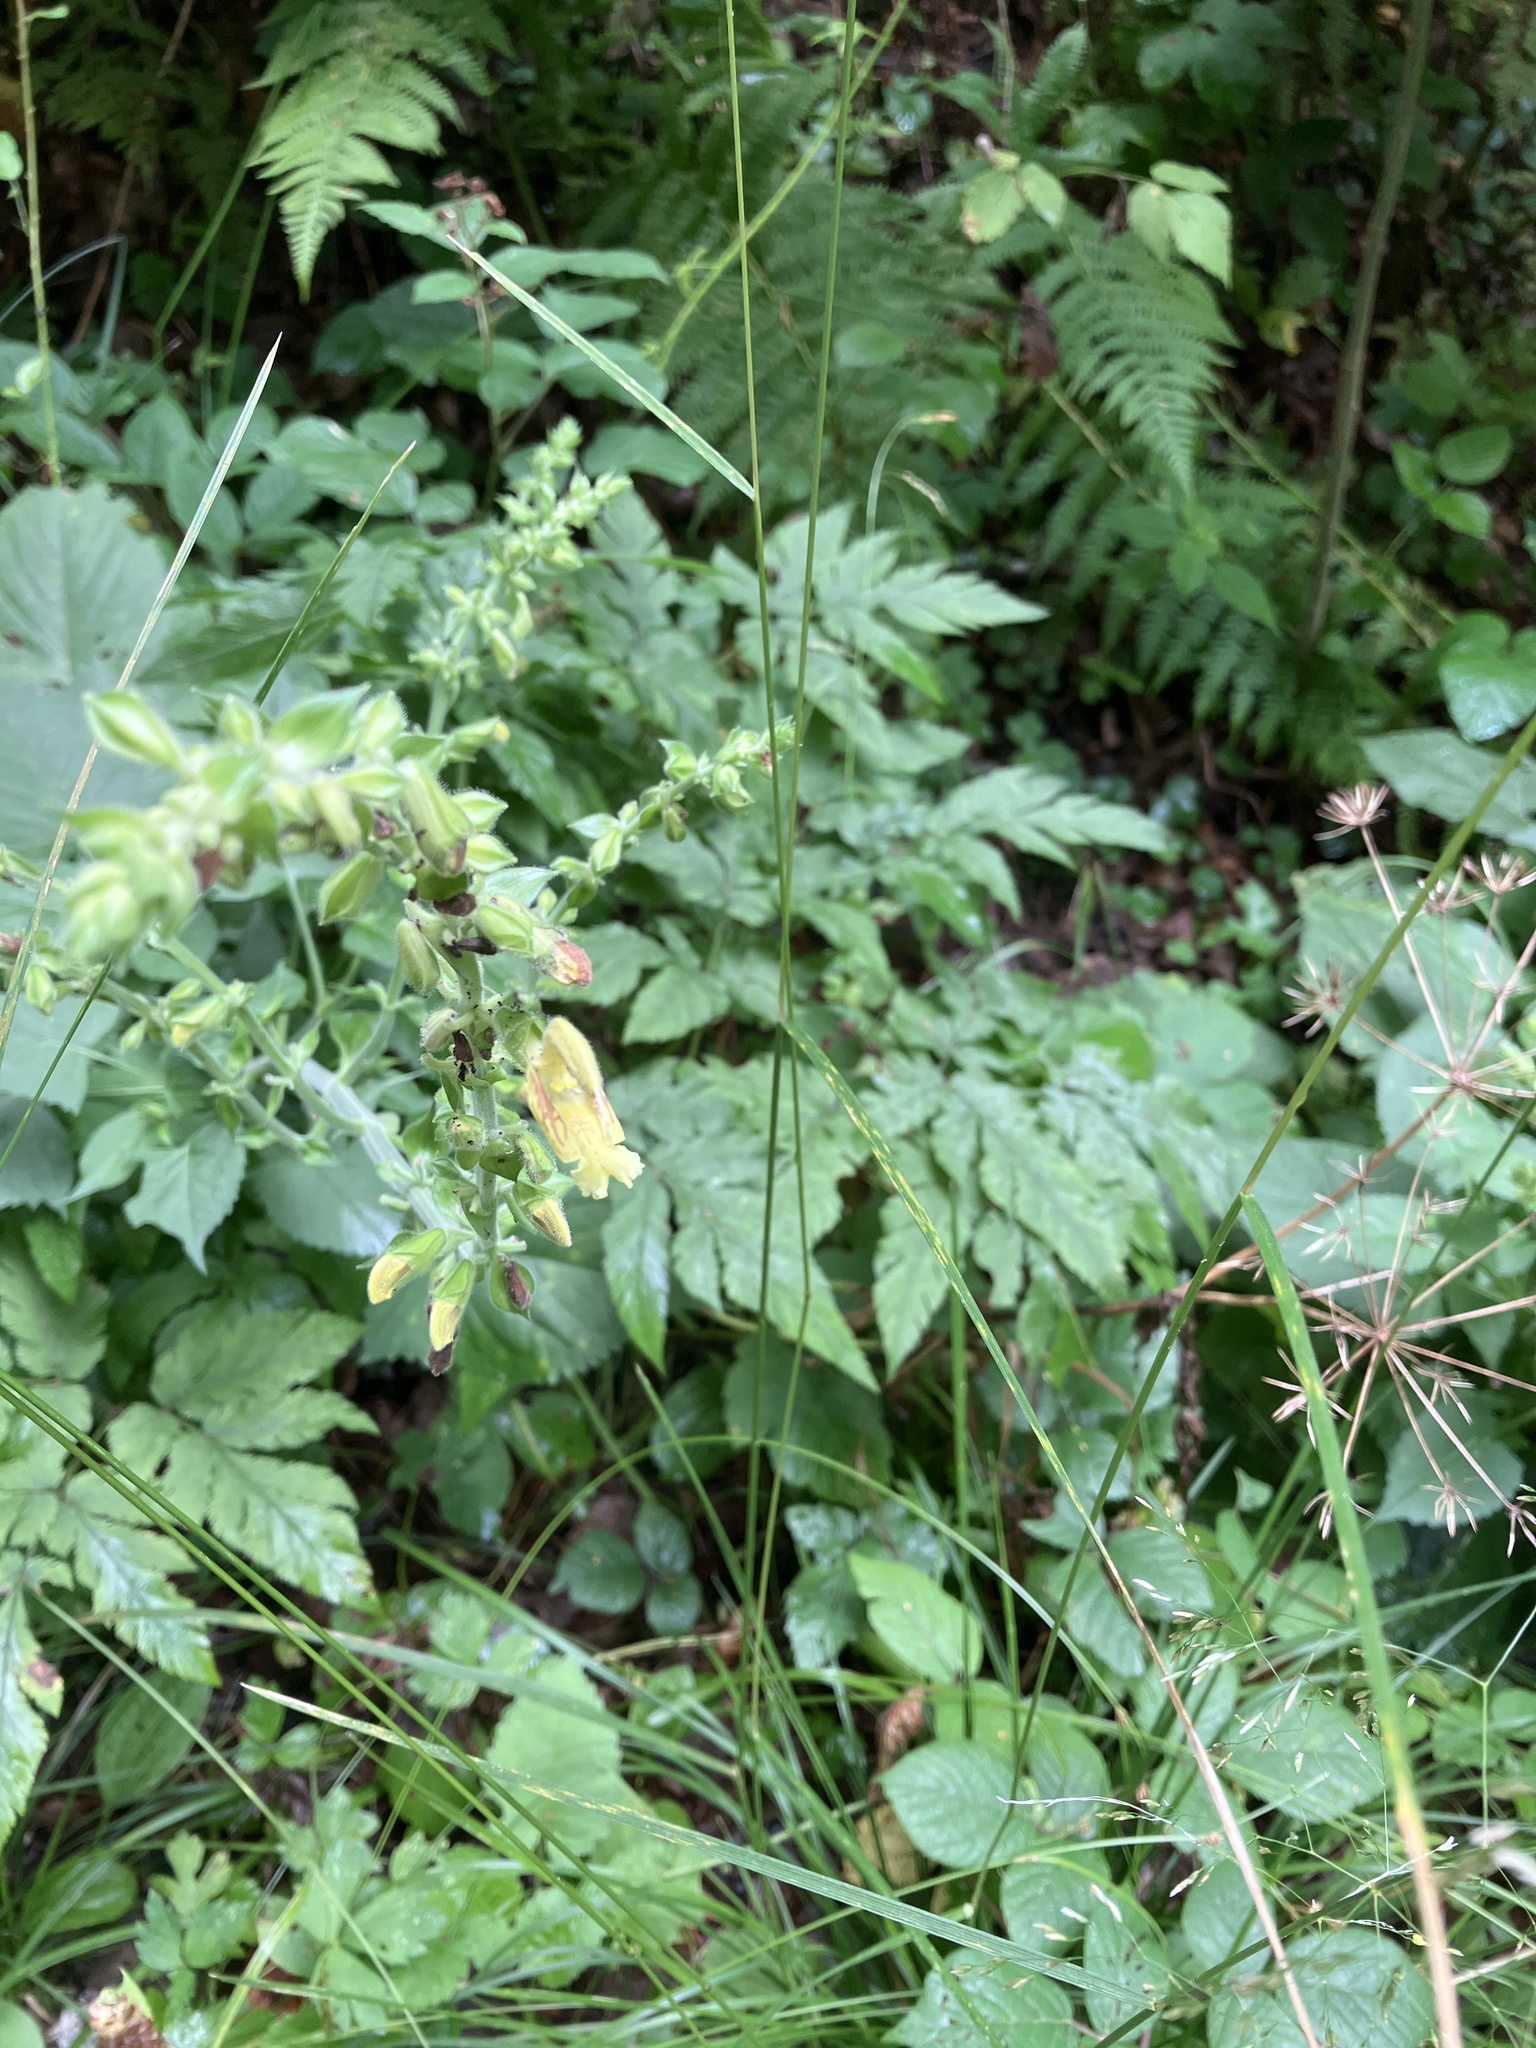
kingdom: Plantae
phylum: Tracheophyta
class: Magnoliopsida
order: Lamiales
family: Lamiaceae
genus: Salvia
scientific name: Salvia glutinosa
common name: Sticky clary
